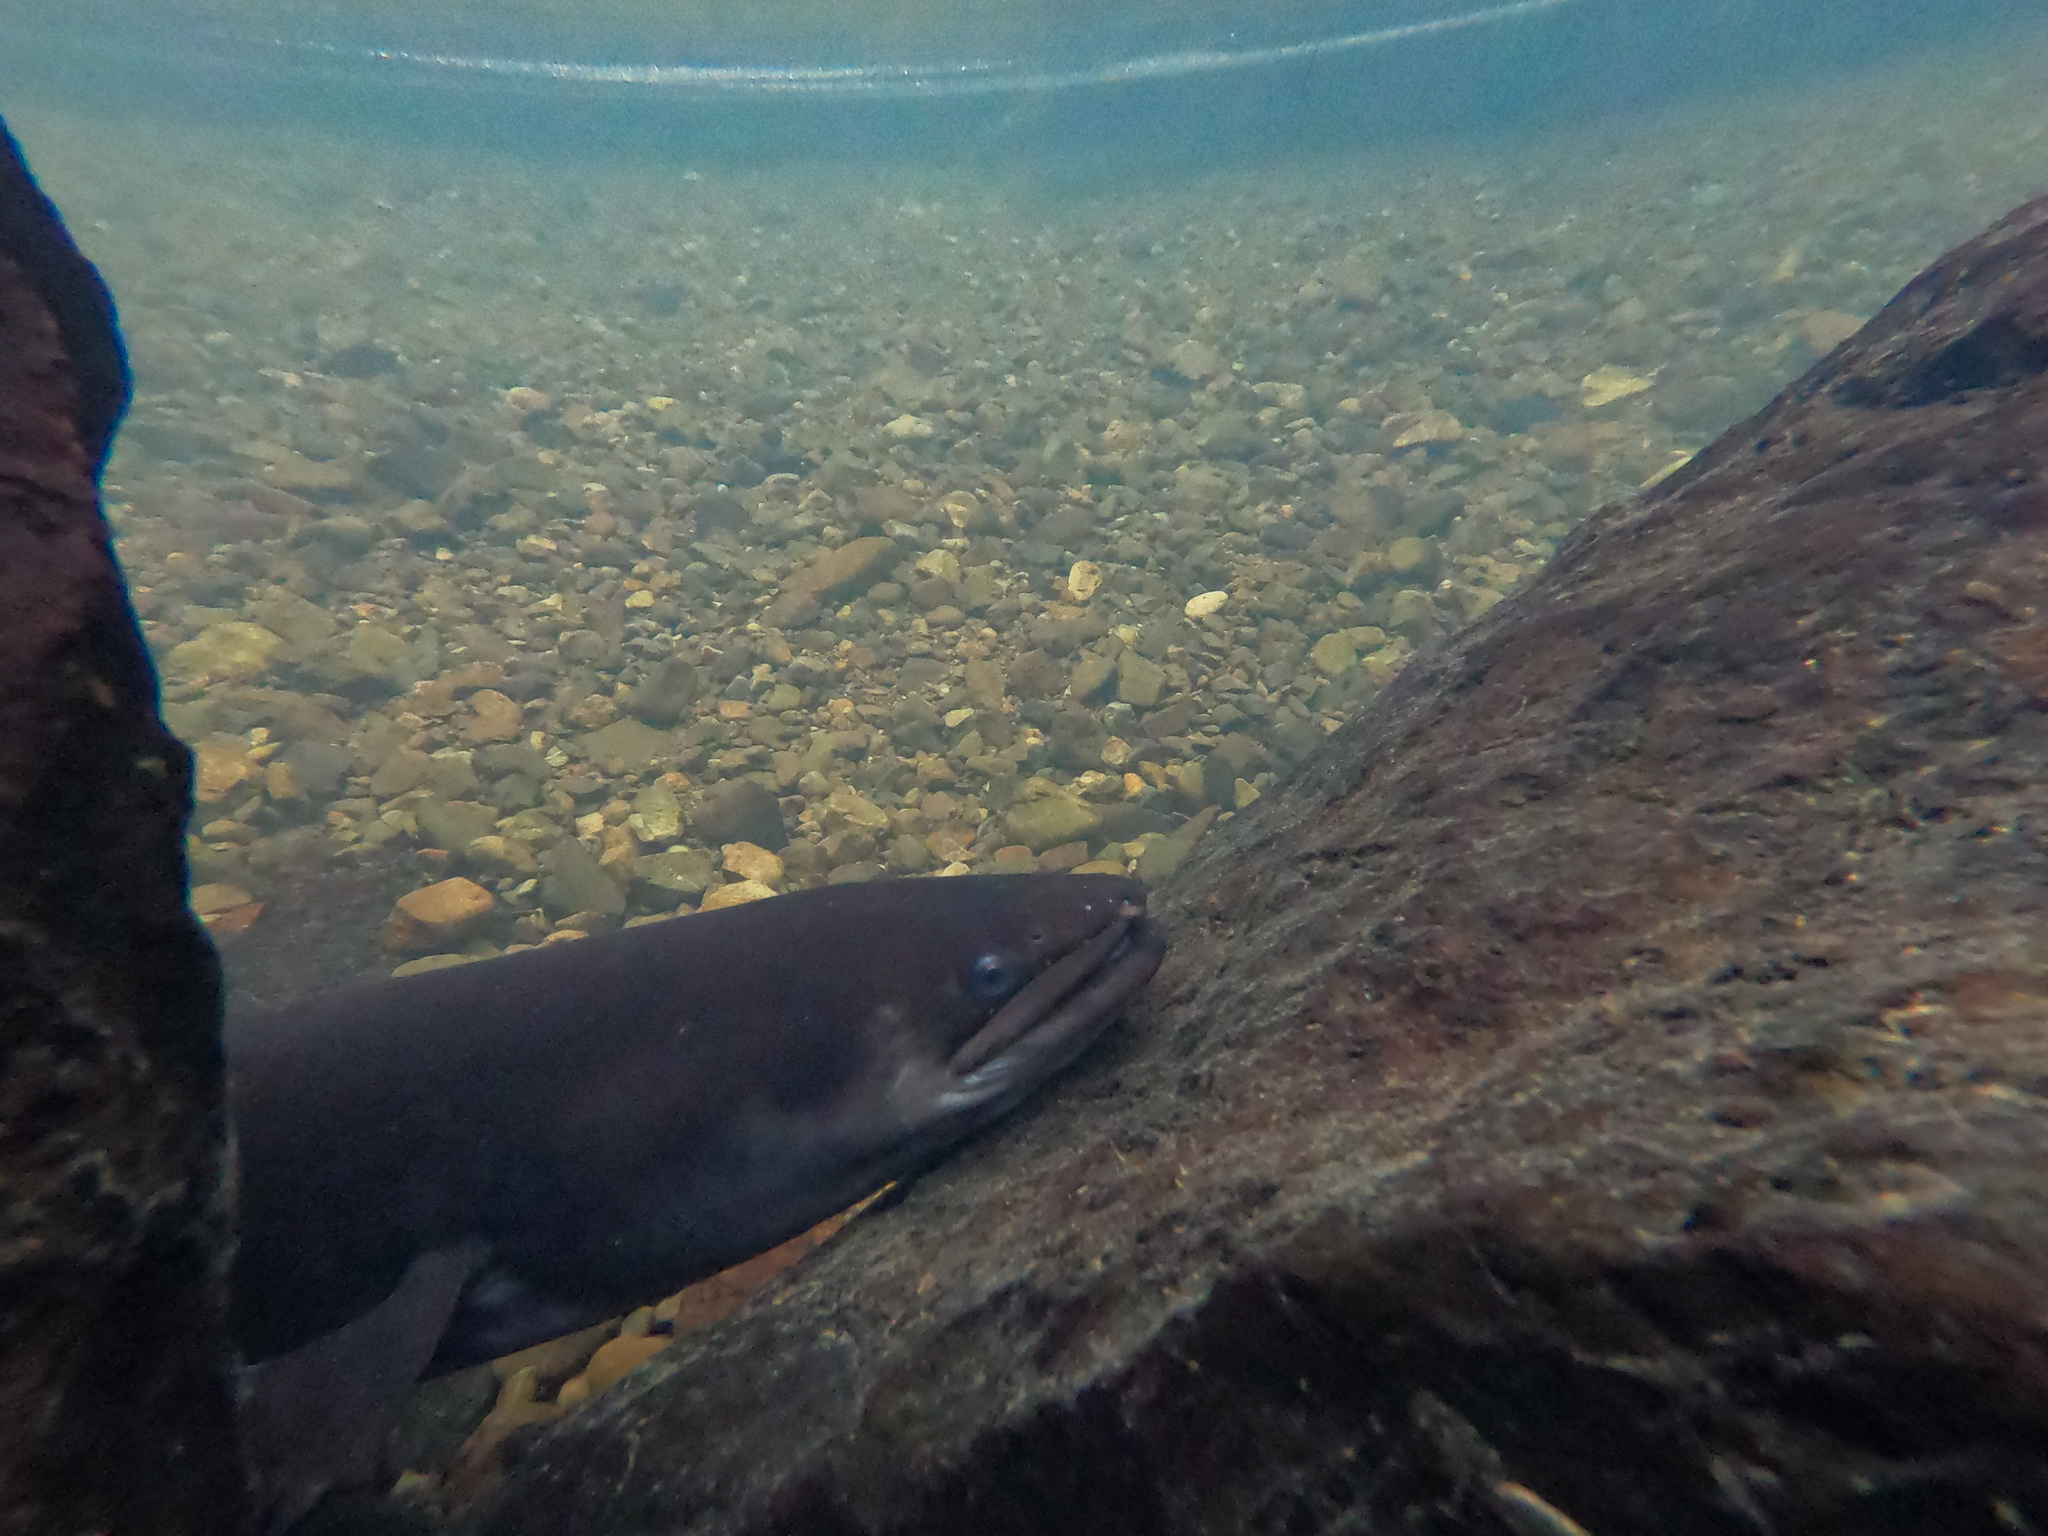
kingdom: Animalia
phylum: Chordata
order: Anguilliformes
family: Anguillidae
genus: Anguilla
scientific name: Anguilla dieffenbachii
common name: New zealand longfin eel
